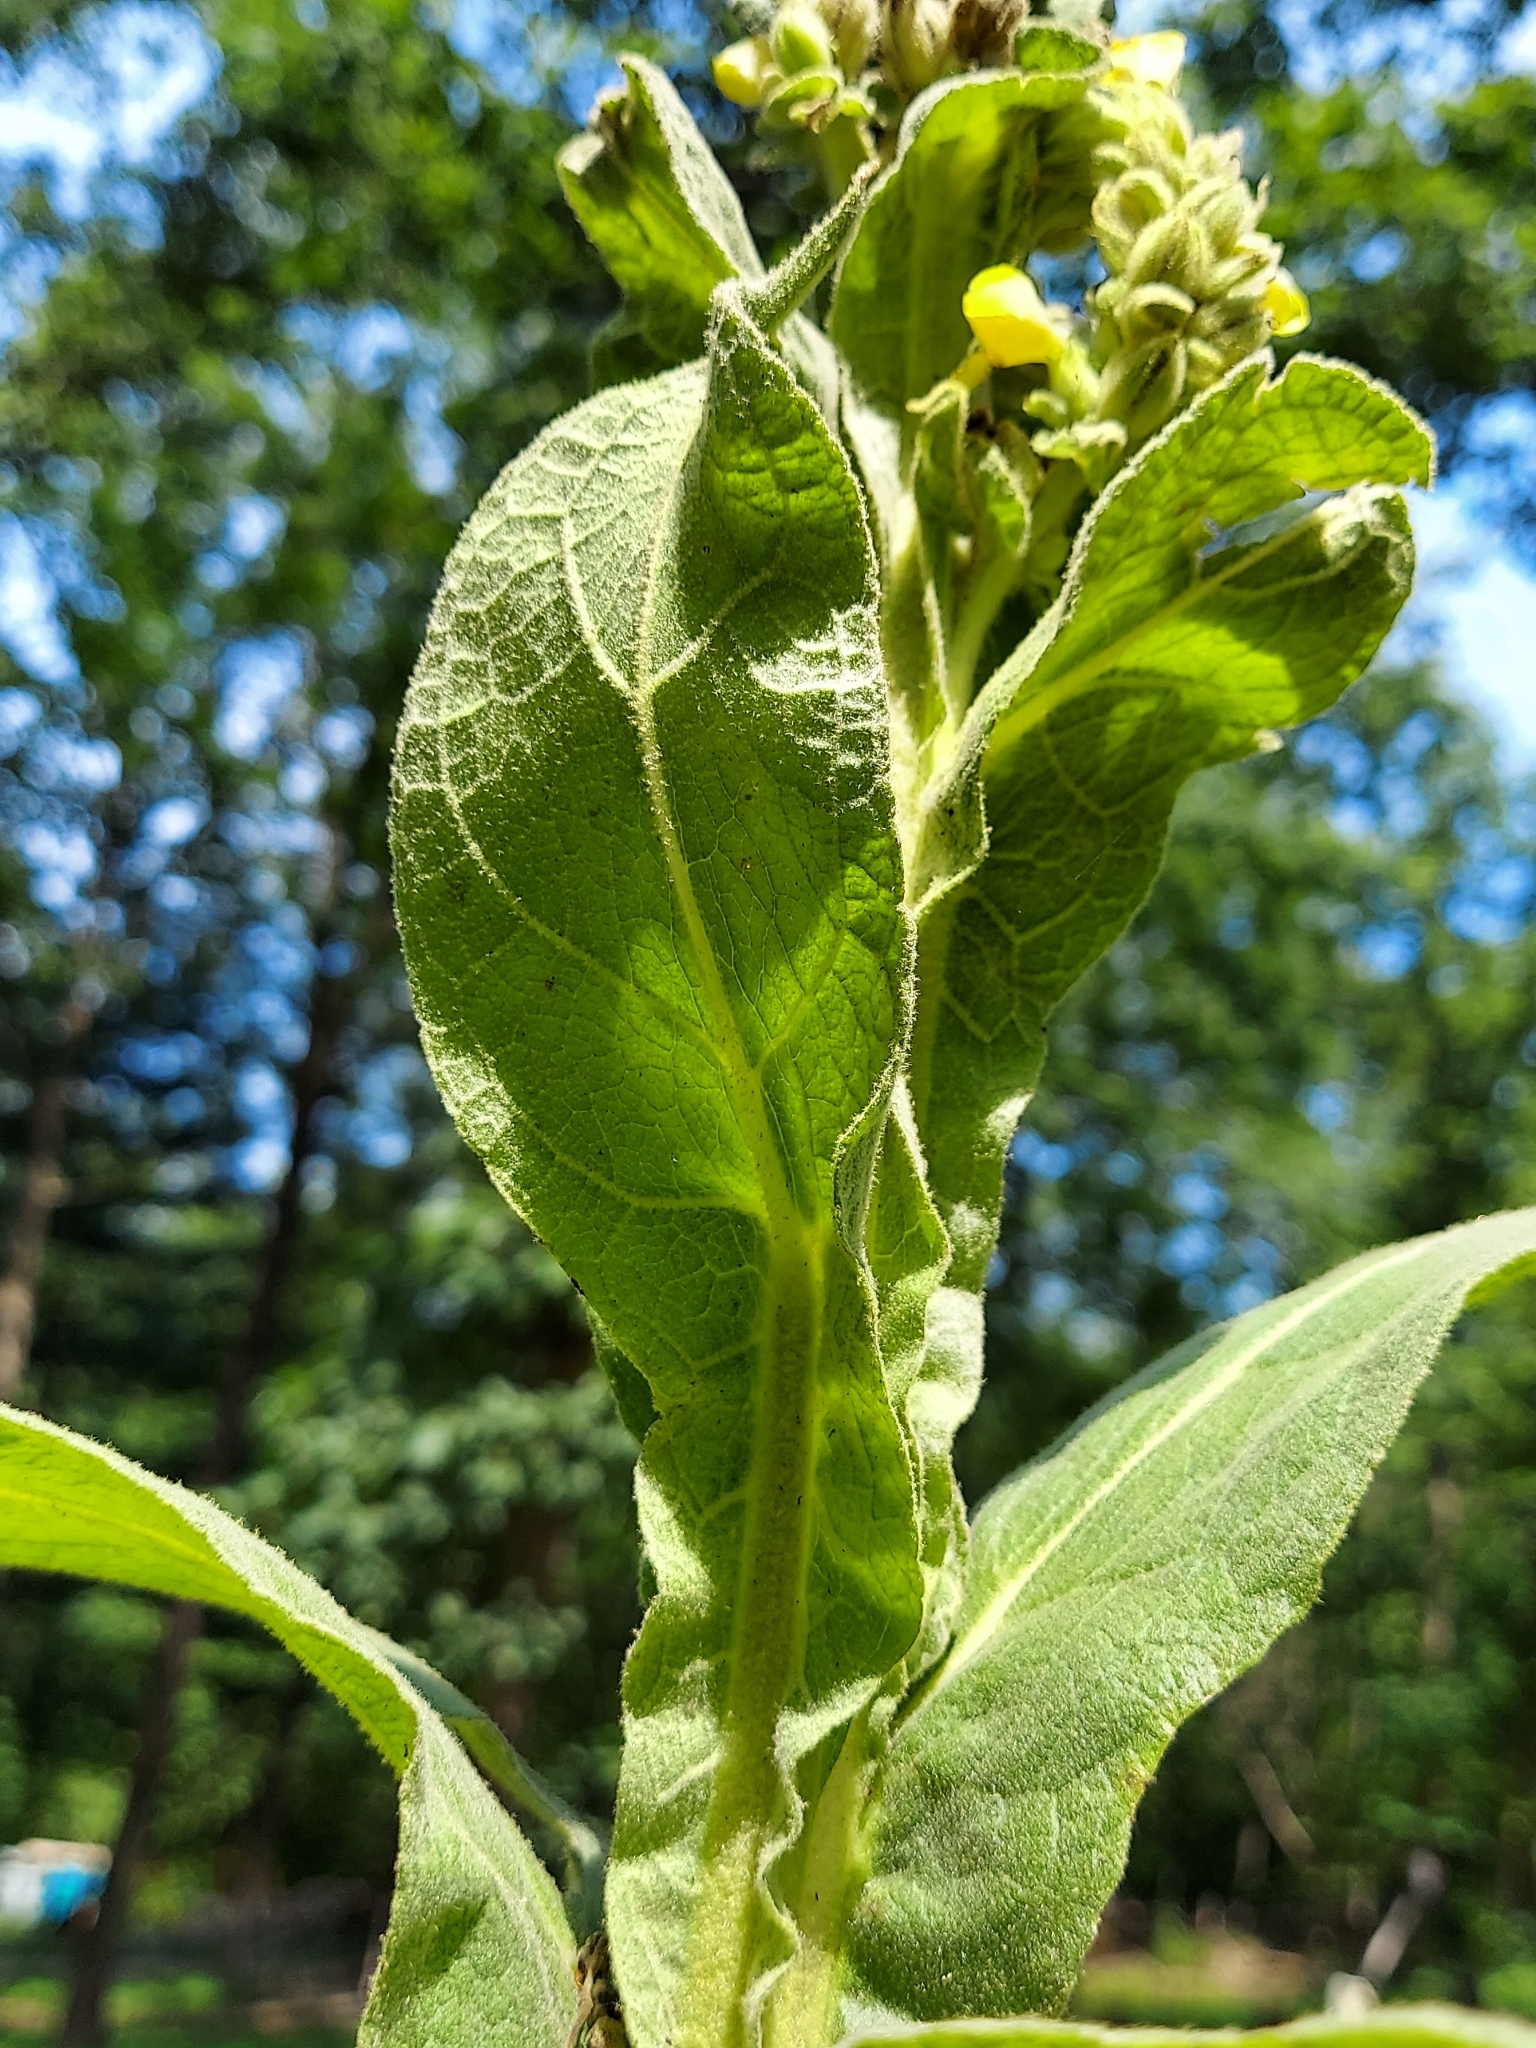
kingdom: Plantae
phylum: Tracheophyta
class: Magnoliopsida
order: Lamiales
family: Scrophulariaceae
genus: Verbascum
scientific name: Verbascum thapsus
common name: Common mullein
